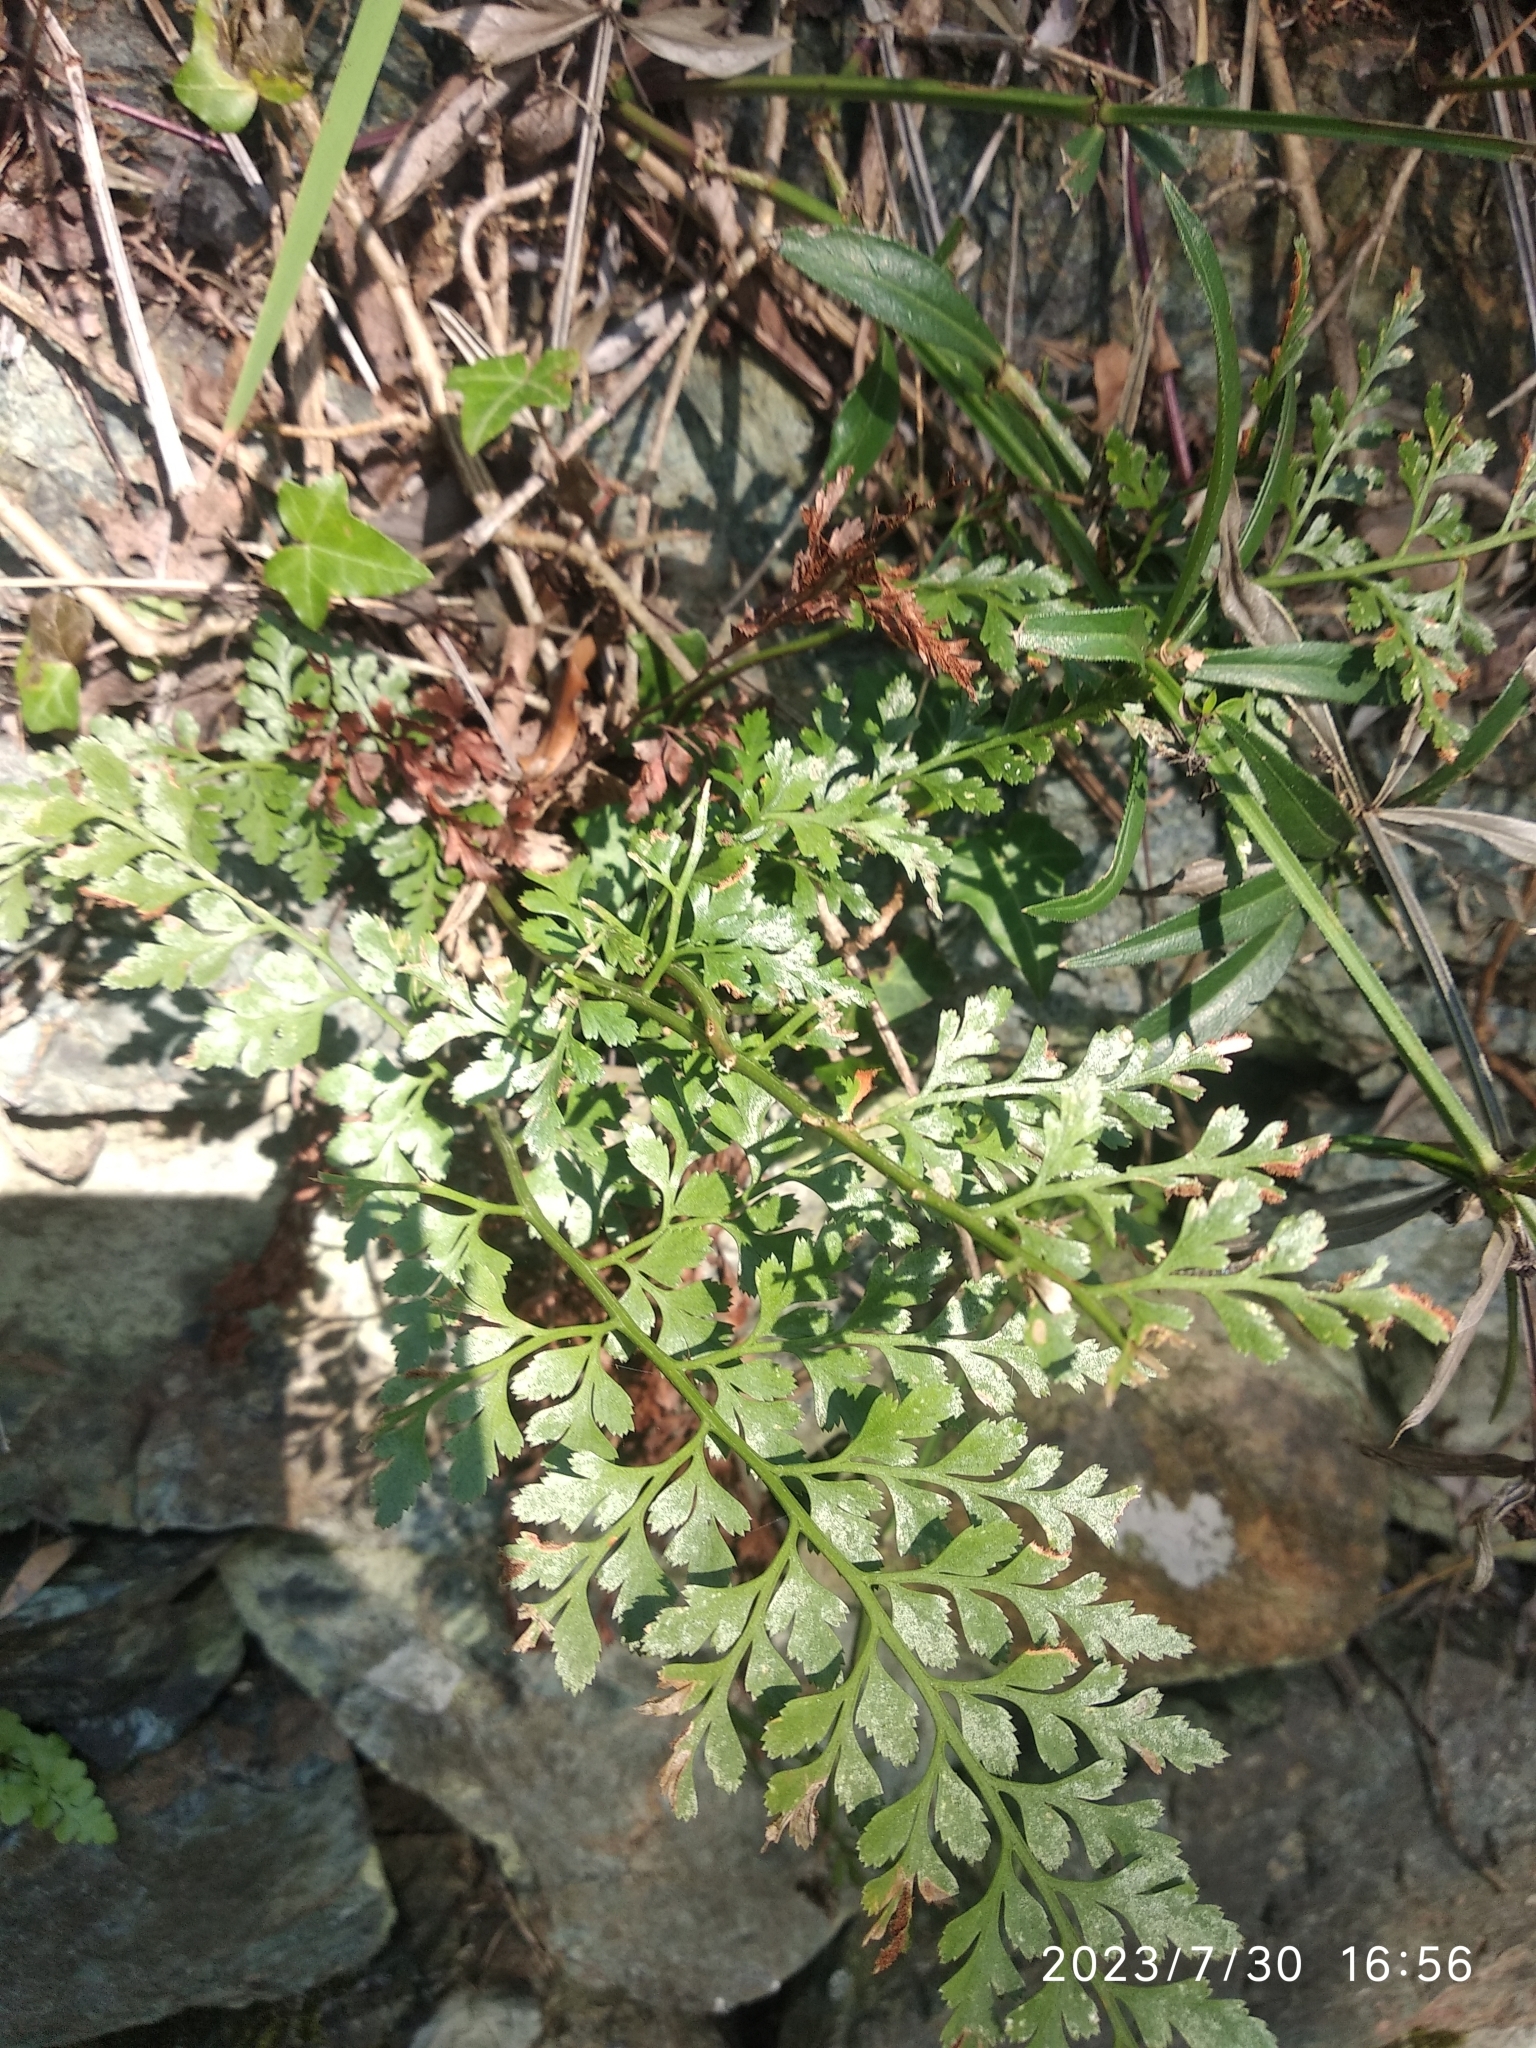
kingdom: Plantae
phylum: Tracheophyta
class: Polypodiopsida
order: Polypodiales
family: Aspleniaceae
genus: Asplenium
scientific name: Asplenium adiantum-nigrum
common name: Black spleenwort
